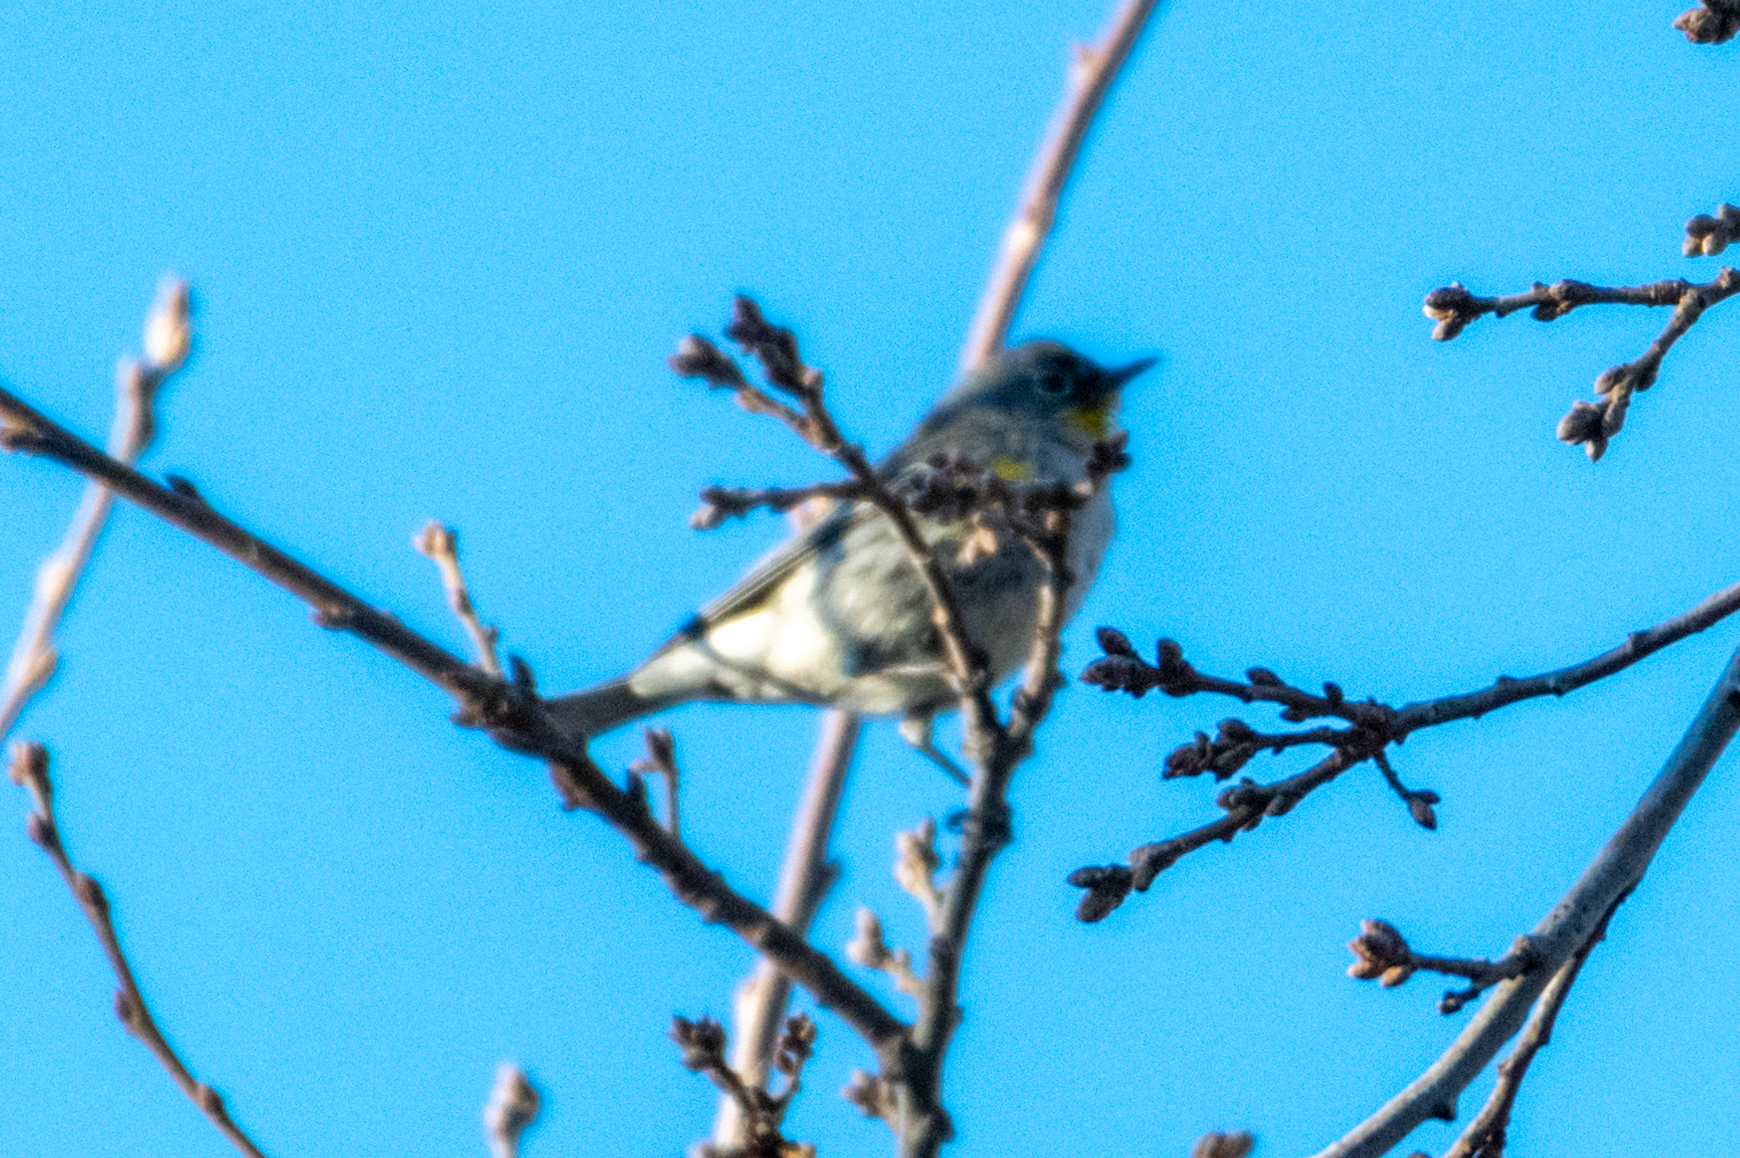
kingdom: Animalia
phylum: Chordata
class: Aves
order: Passeriformes
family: Parulidae
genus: Setophaga
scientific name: Setophaga coronata
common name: Myrtle warbler
